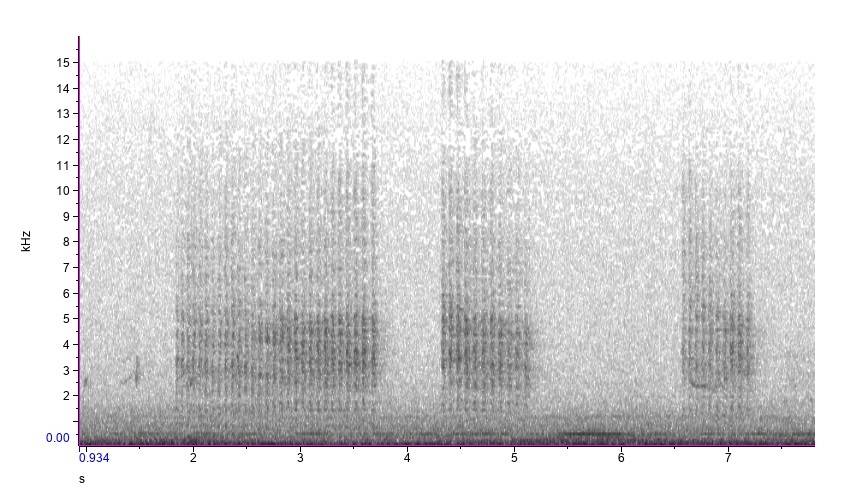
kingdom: Animalia
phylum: Chordata
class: Aves
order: Passeriformes
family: Icteridae
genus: Icterus
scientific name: Icterus galbula
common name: Baltimore oriole
